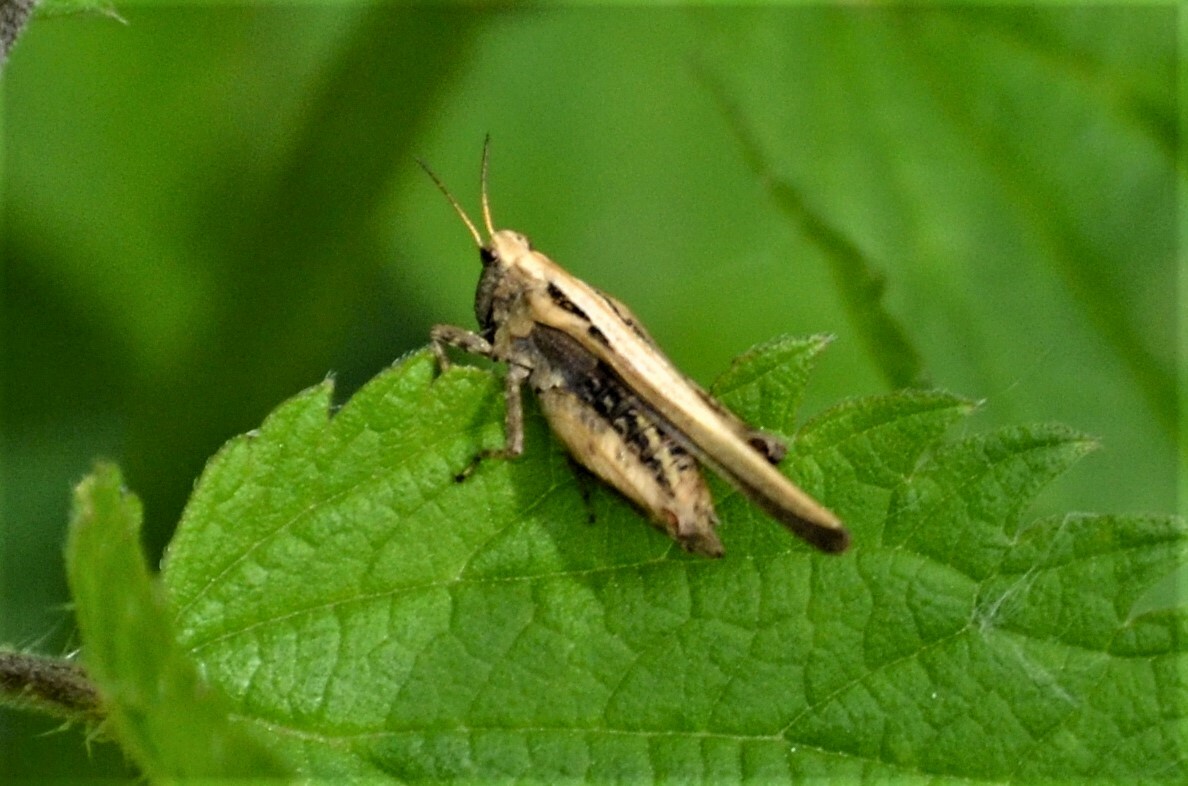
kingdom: Animalia
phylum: Arthropoda
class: Insecta
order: Orthoptera
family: Tetrigidae
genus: Tetrix
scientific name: Tetrix subulata
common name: Slender ground-hopper
